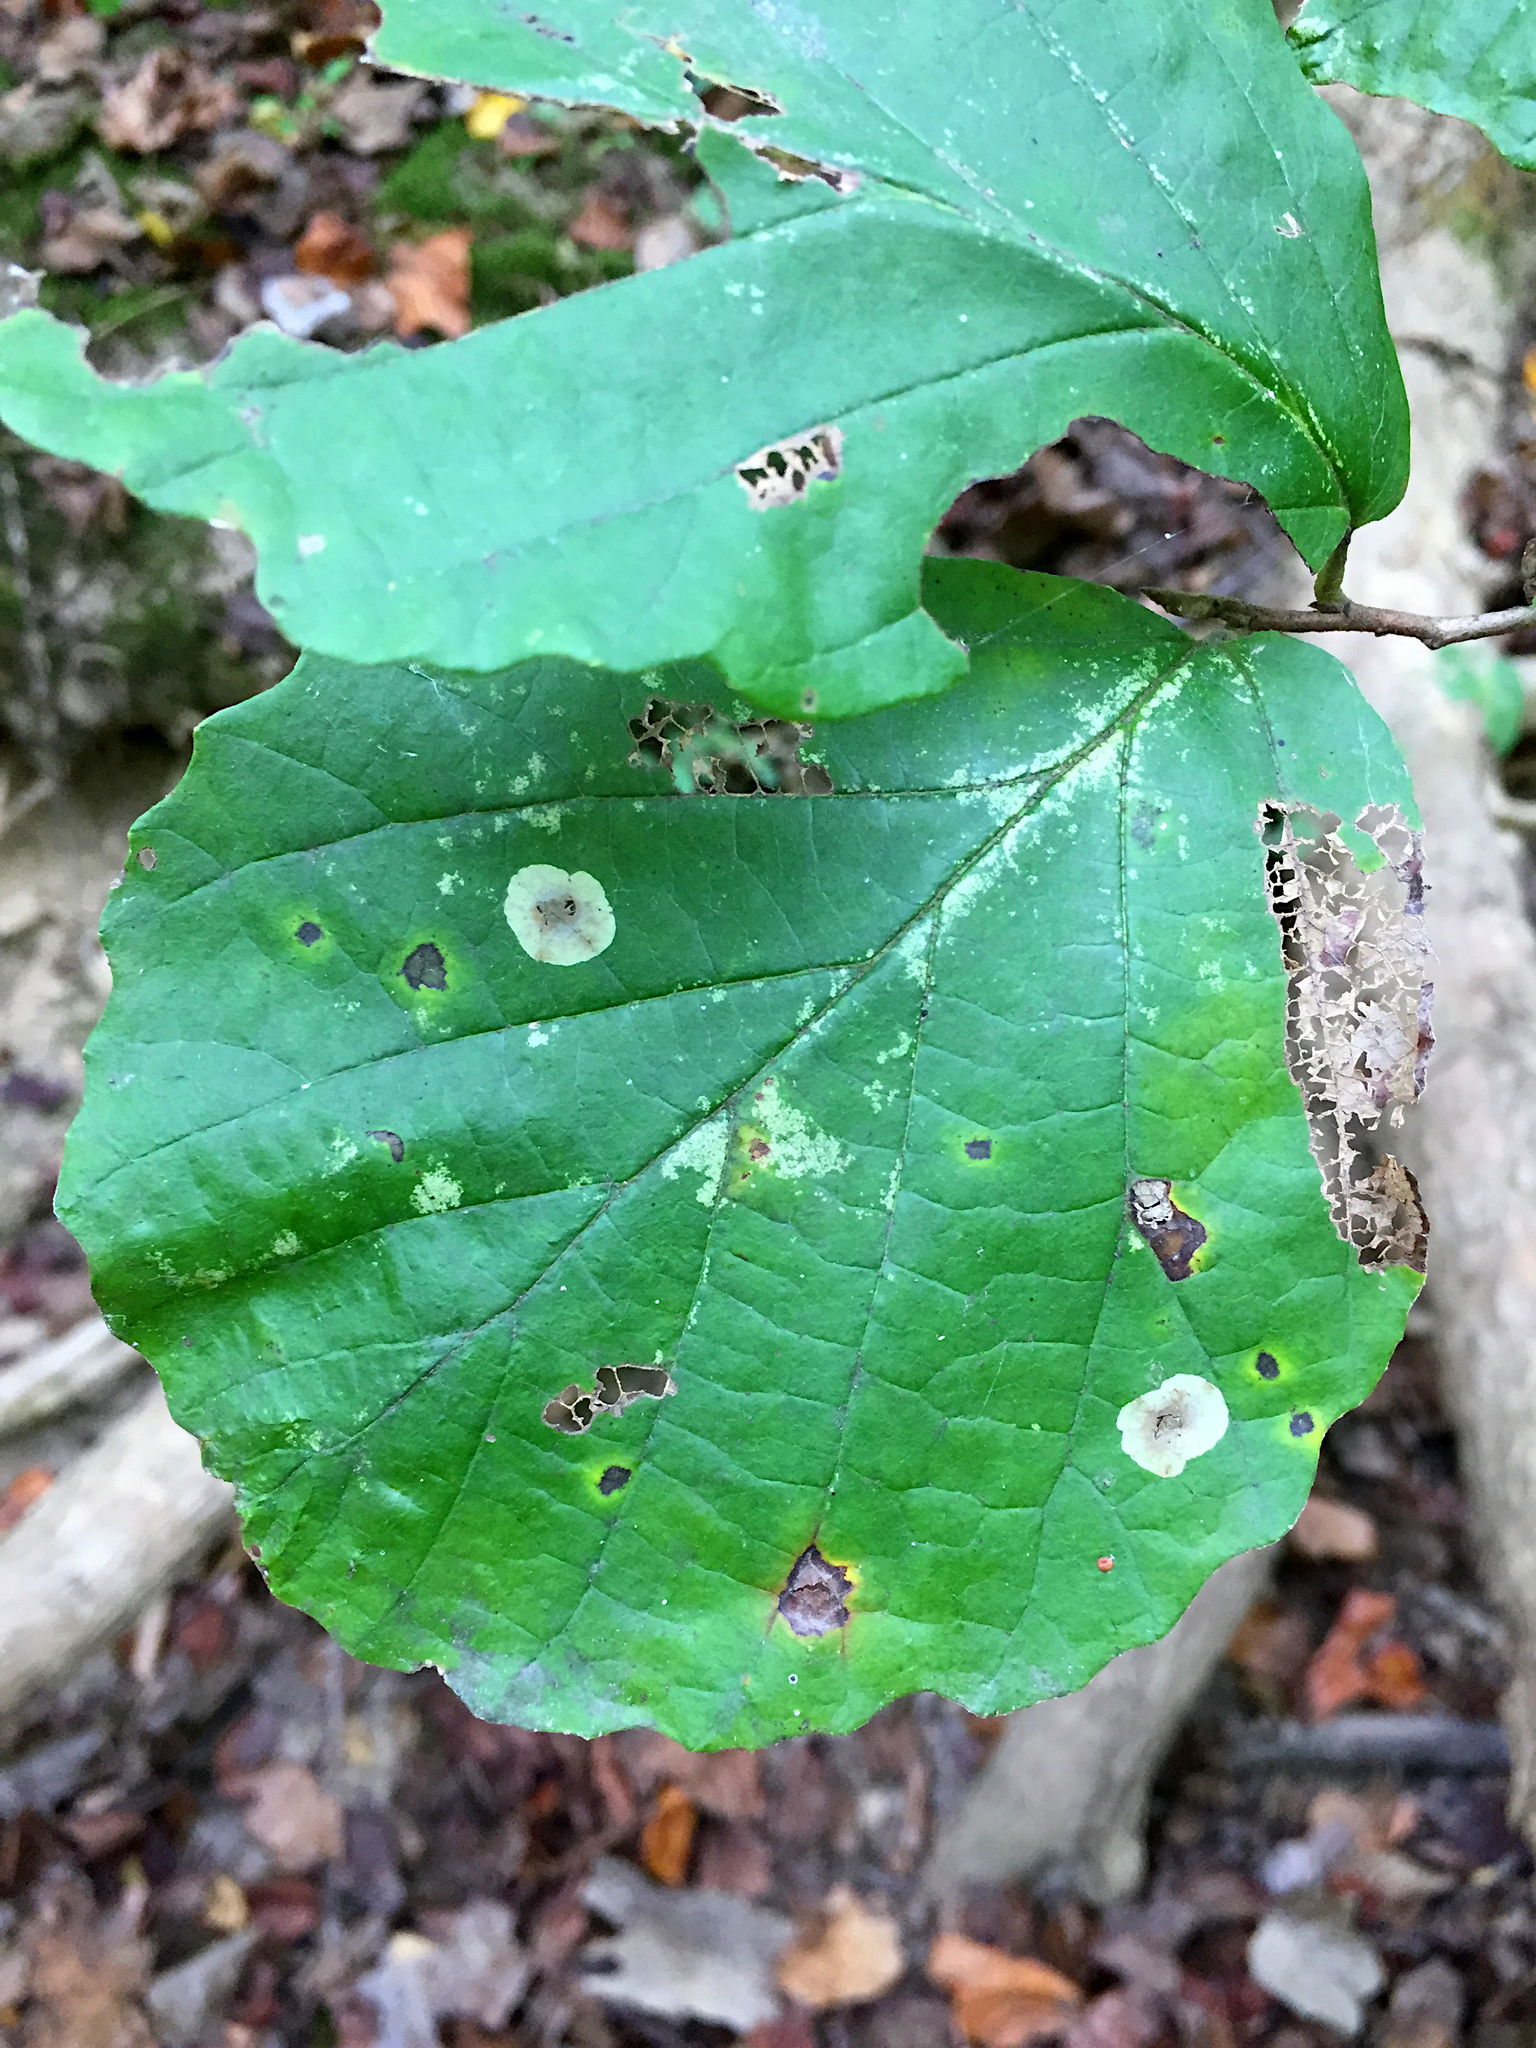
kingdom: Animalia
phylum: Arthropoda
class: Insecta
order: Lepidoptera
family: Gracillariidae
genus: Cameraria
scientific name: Cameraria hamameliella
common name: Witchhazel leafminer
